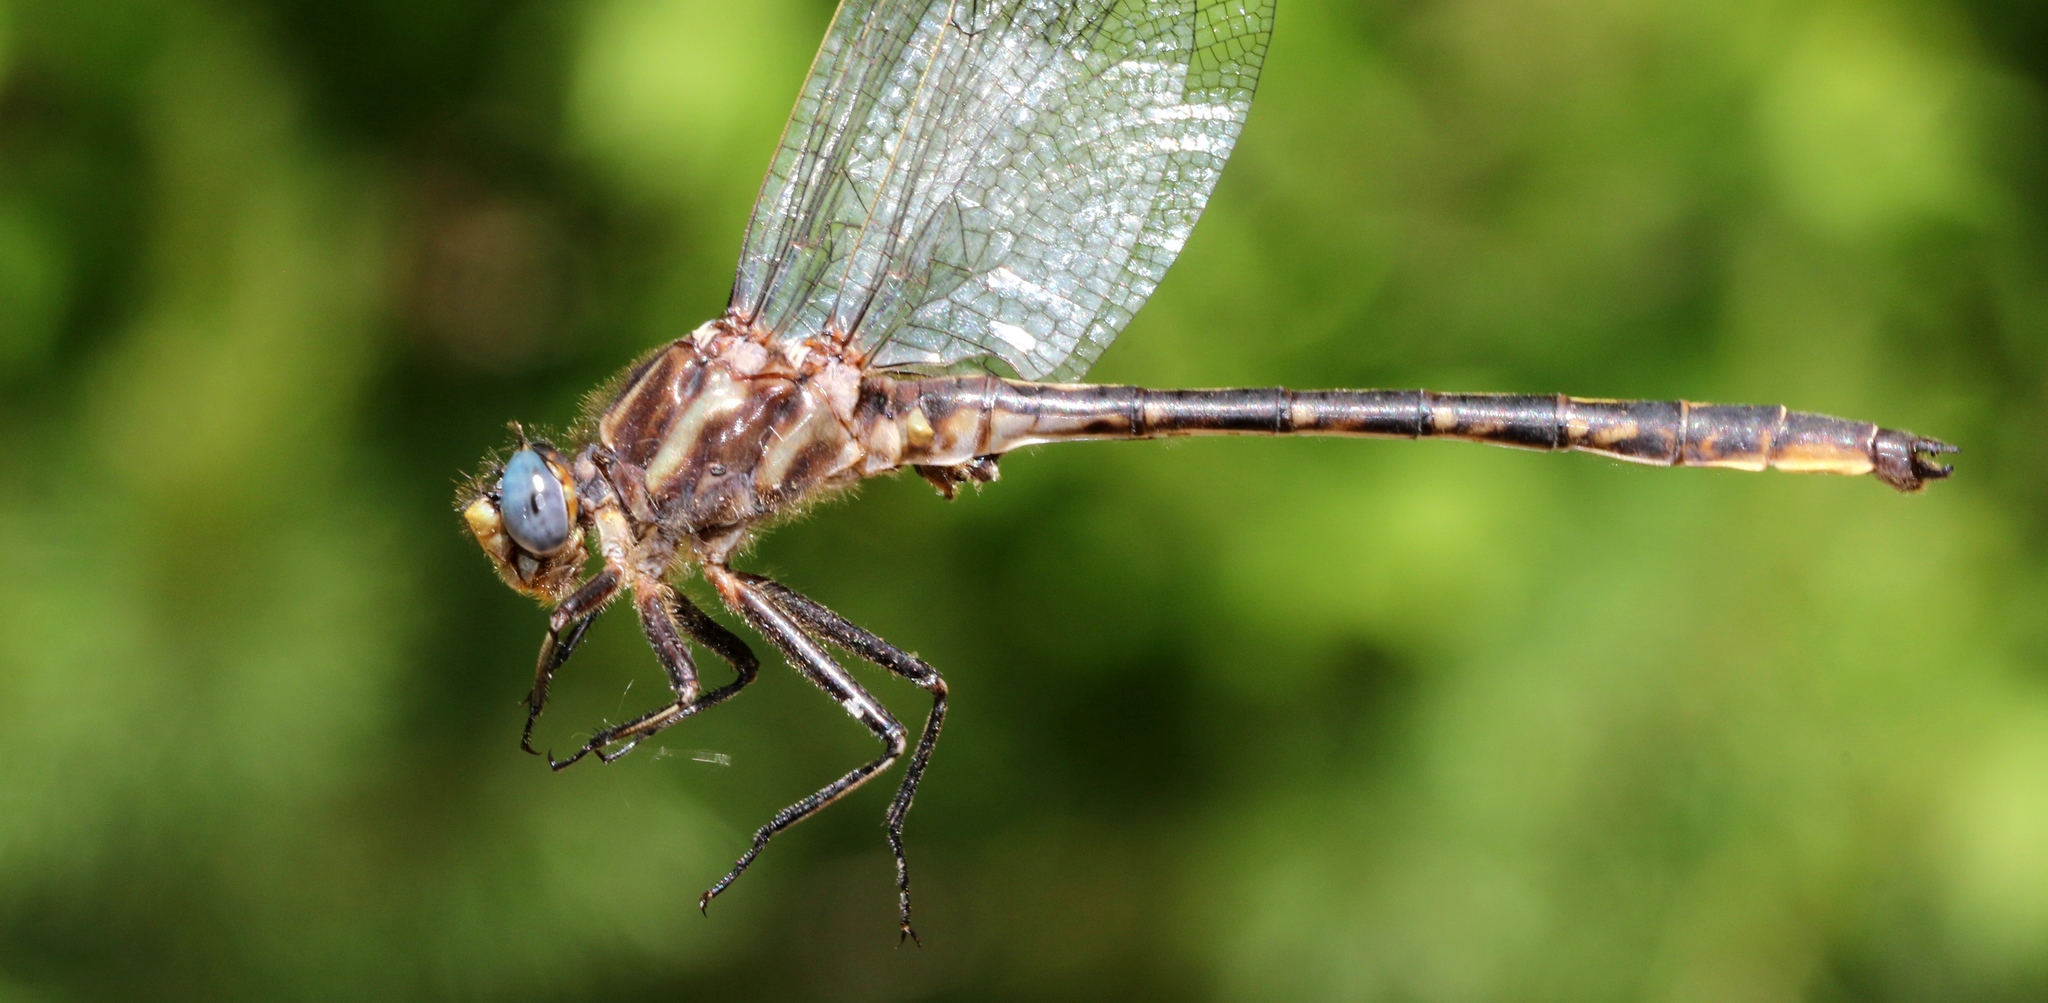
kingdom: Animalia
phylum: Arthropoda
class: Insecta
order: Odonata
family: Gomphidae
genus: Phanogomphus
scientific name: Phanogomphus spicatus
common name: Dusky clubtail
